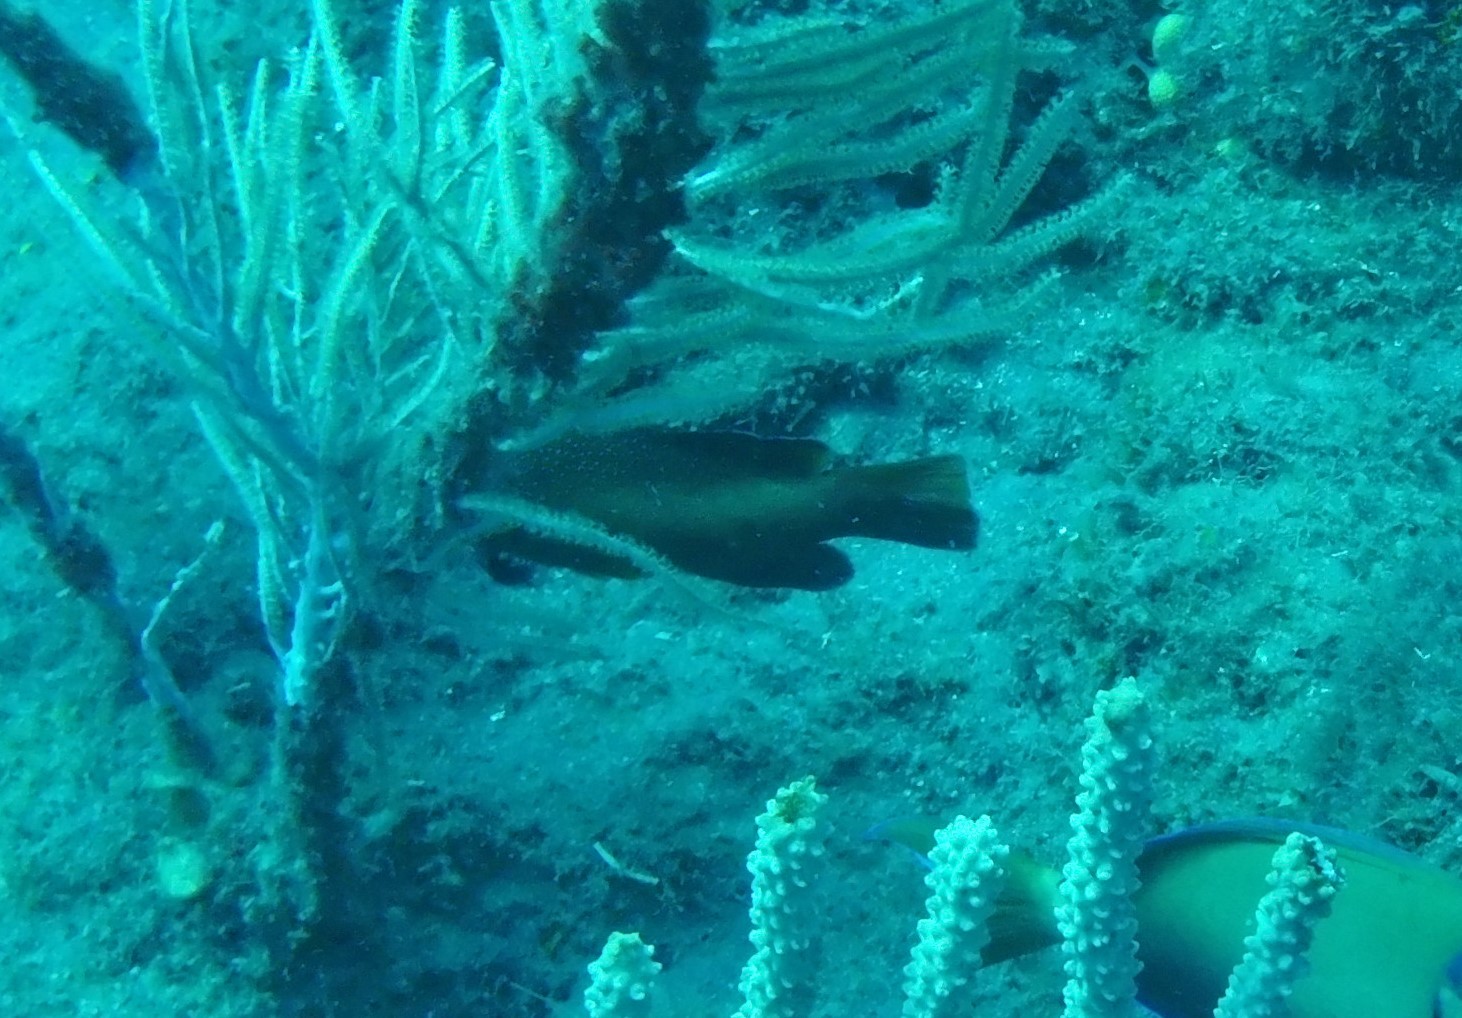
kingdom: Animalia
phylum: Chordata
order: Perciformes
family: Serranidae
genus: Cephalopholis
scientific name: Cephalopholis fulva
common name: Butterfish
